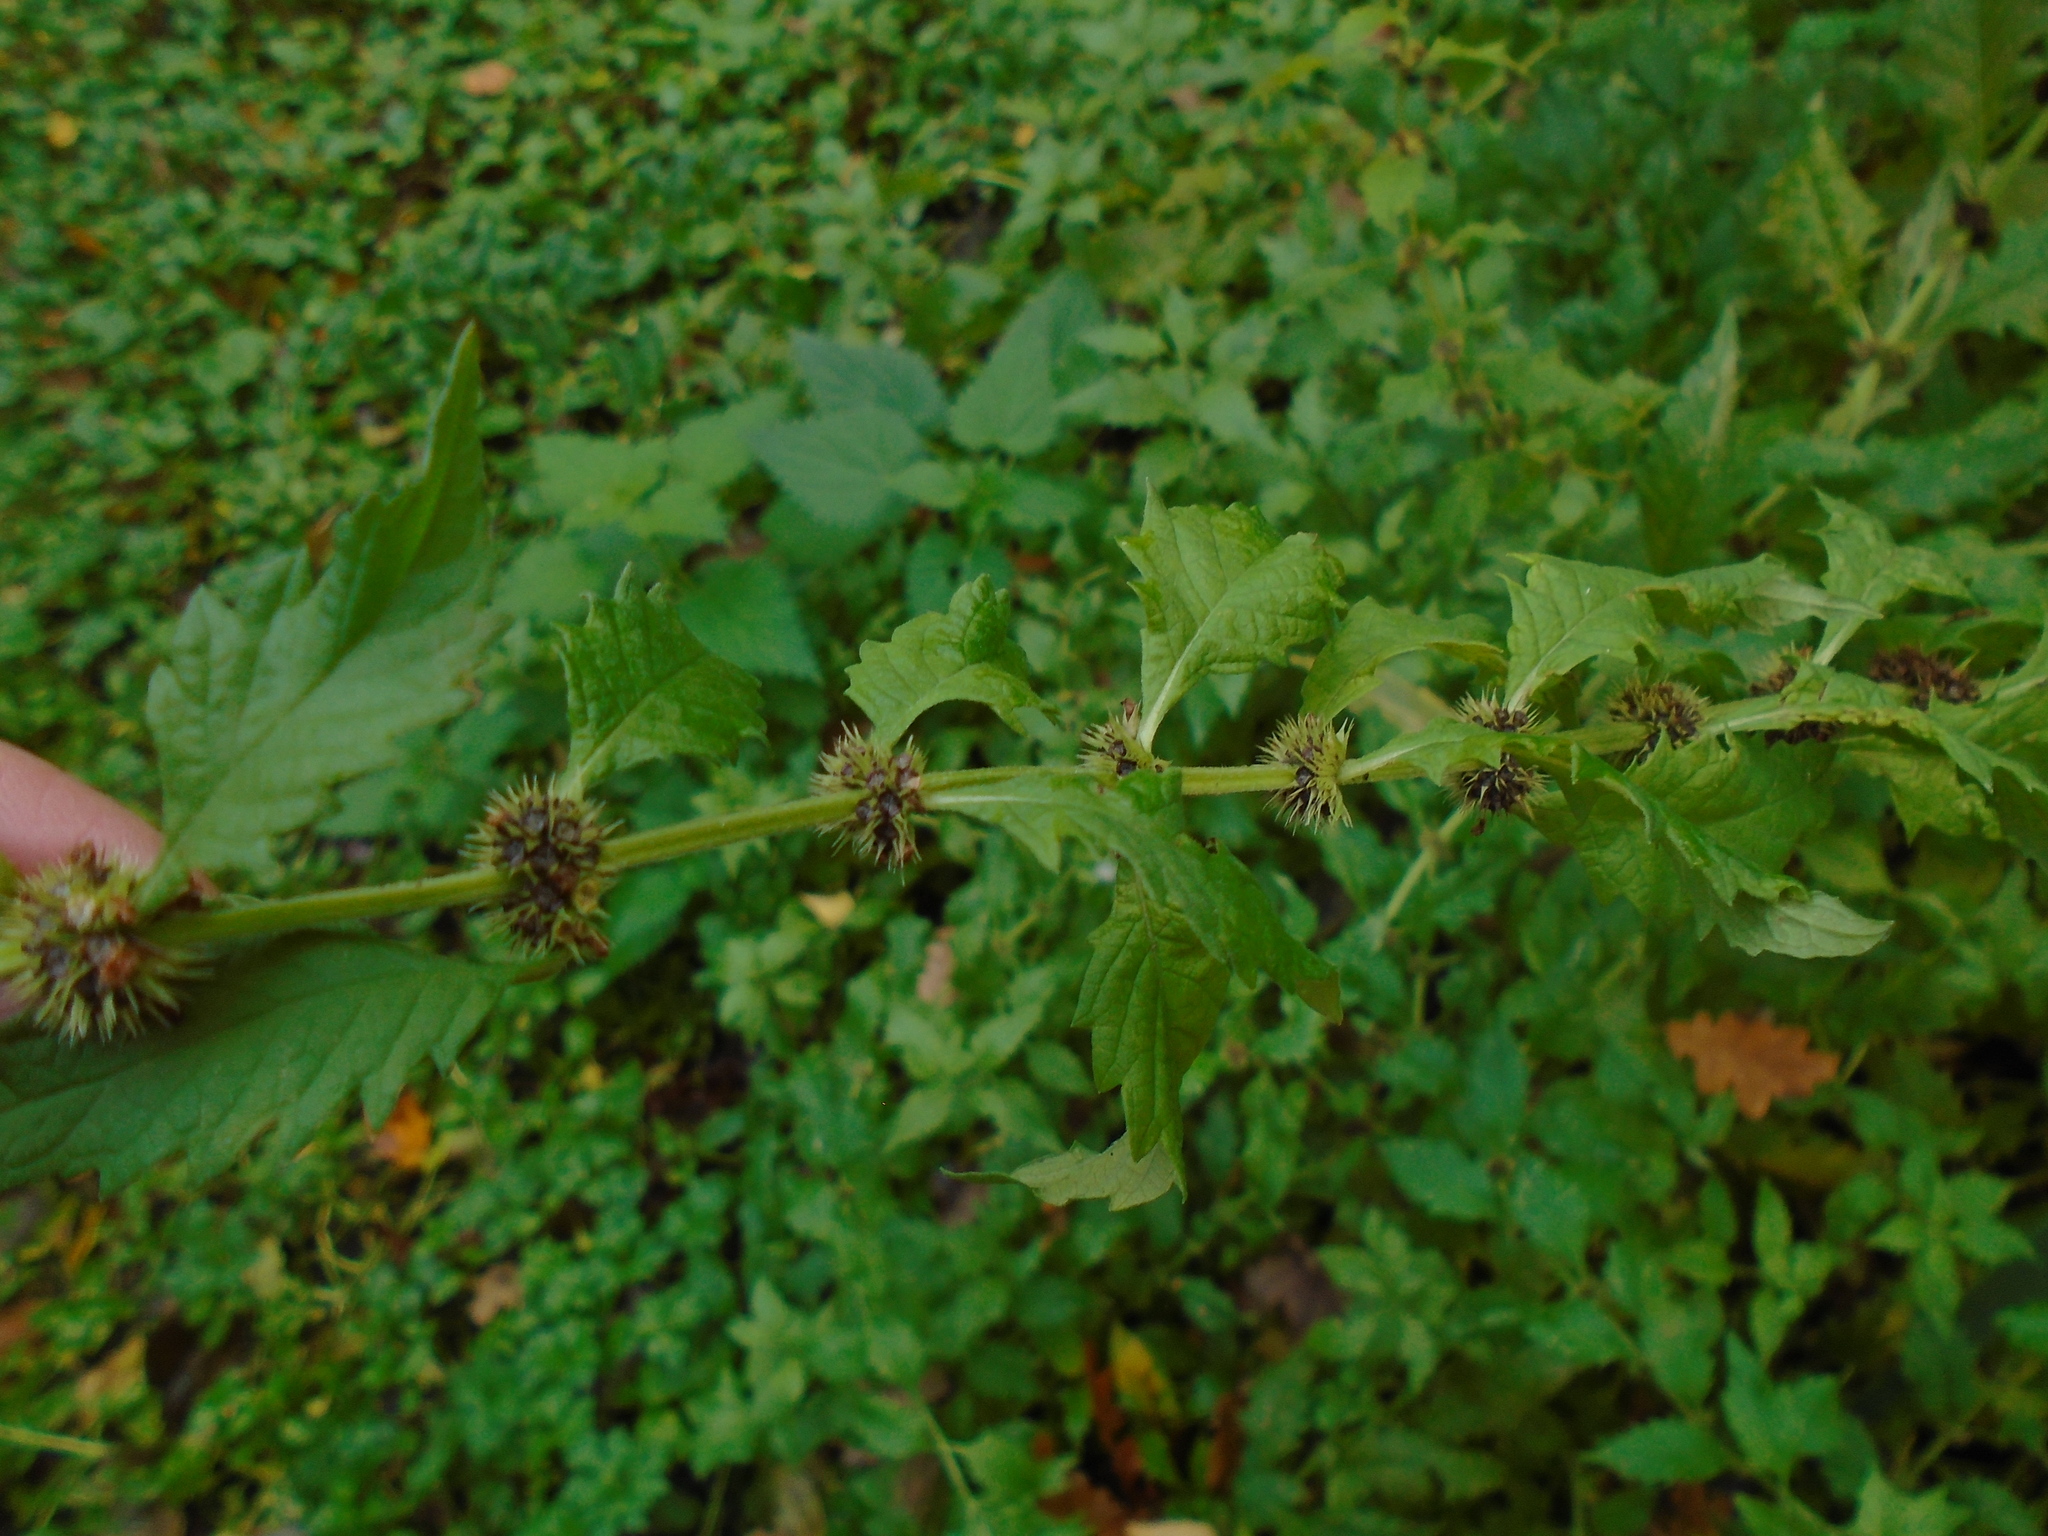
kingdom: Plantae
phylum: Tracheophyta
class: Magnoliopsida
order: Lamiales
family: Lamiaceae
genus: Lycopus
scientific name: Lycopus europaeus
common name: European bugleweed
